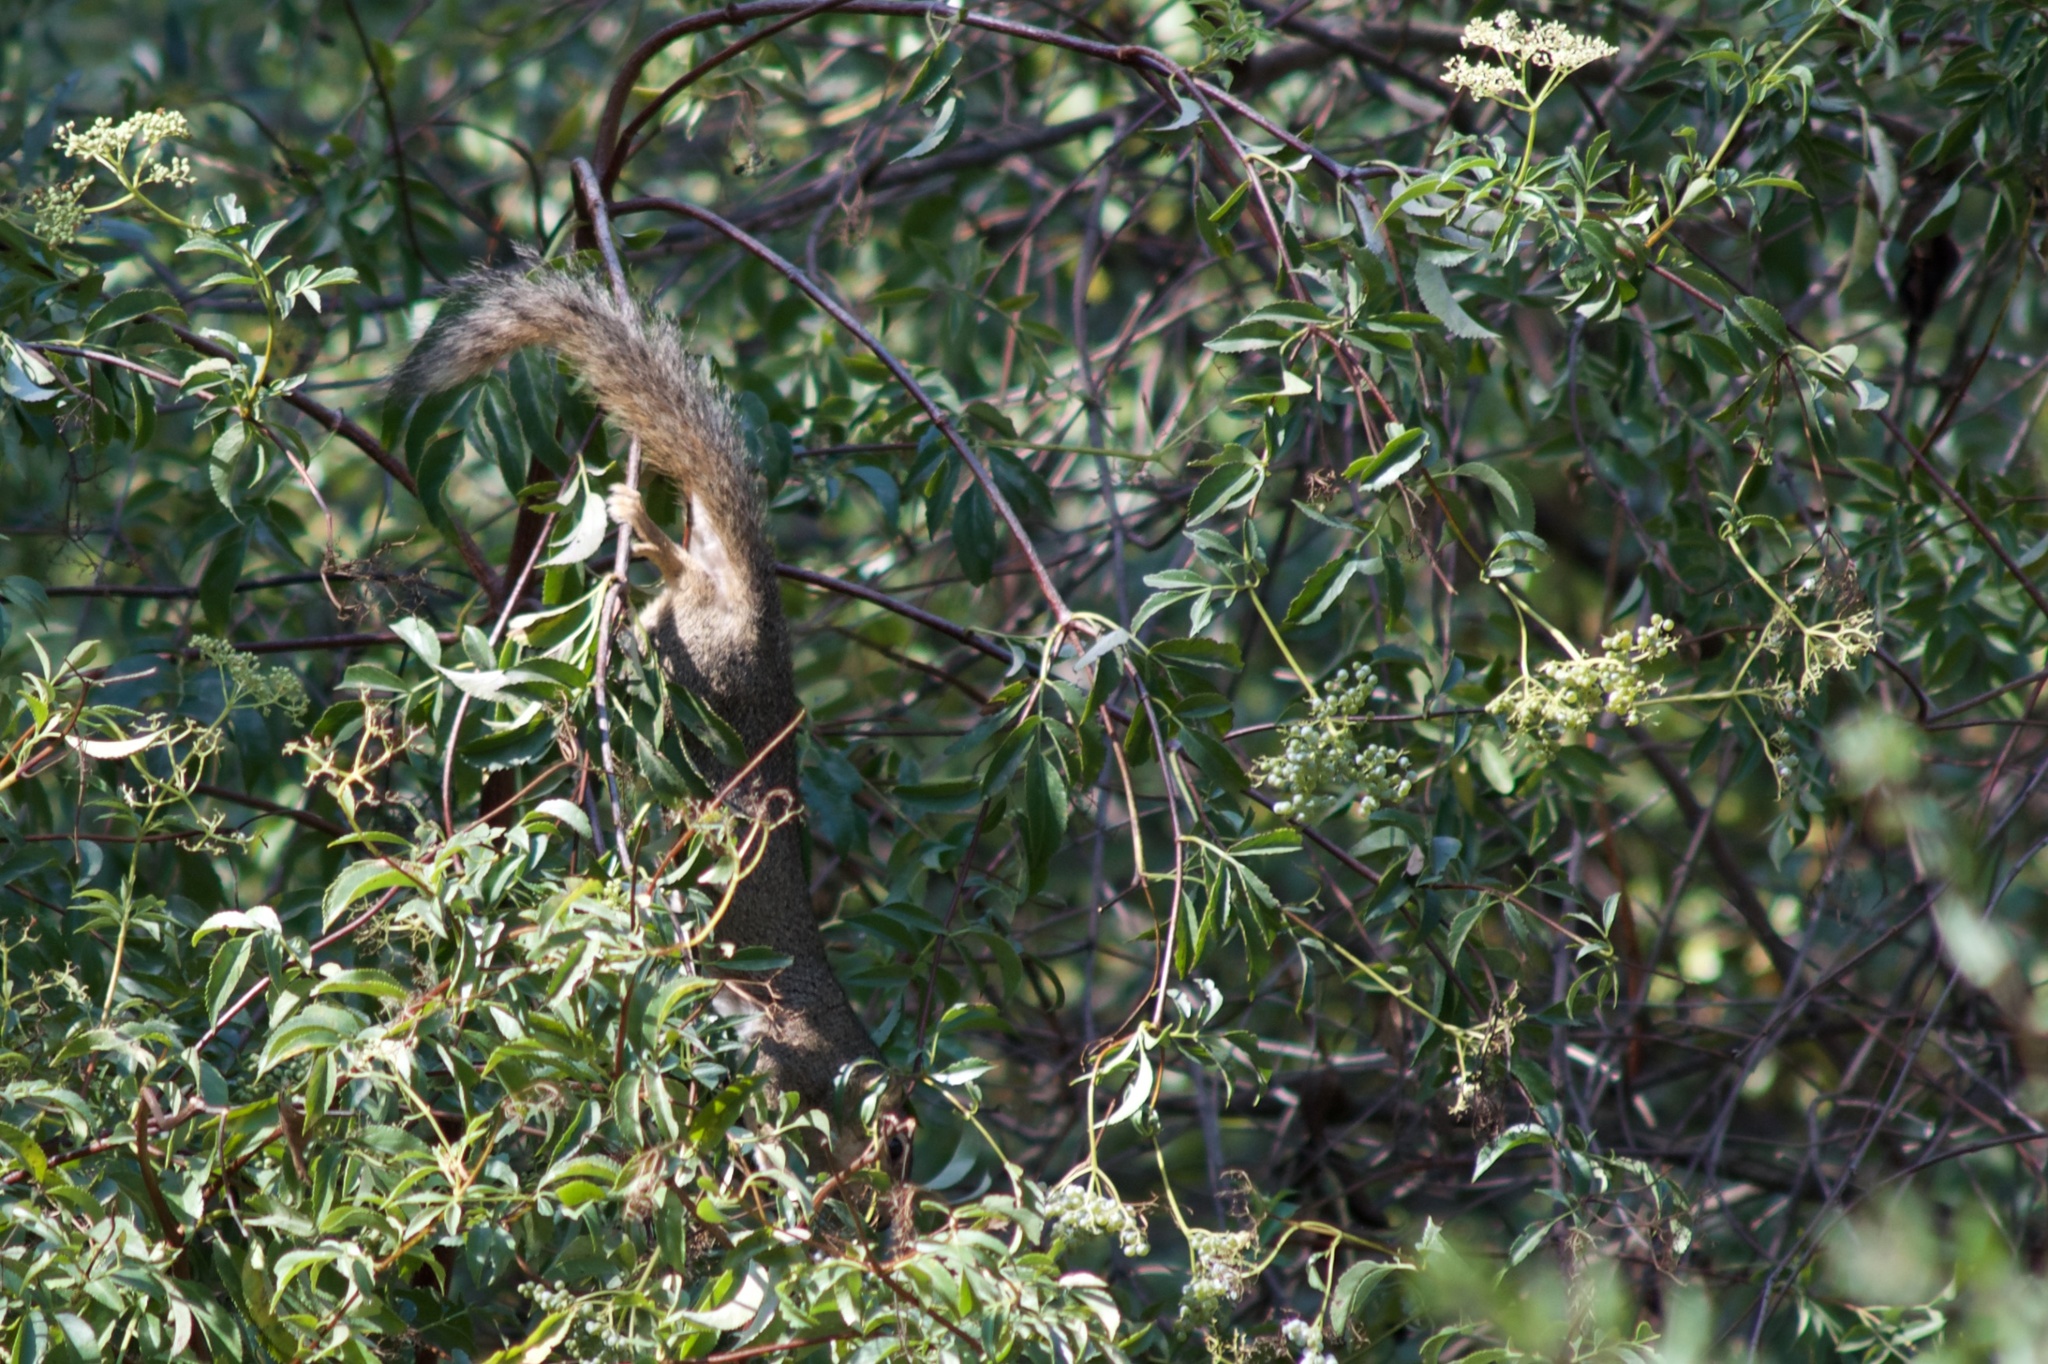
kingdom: Animalia
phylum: Chordata
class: Mammalia
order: Rodentia
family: Sciuridae
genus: Sciurus
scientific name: Sciurus niger
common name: Fox squirrel
